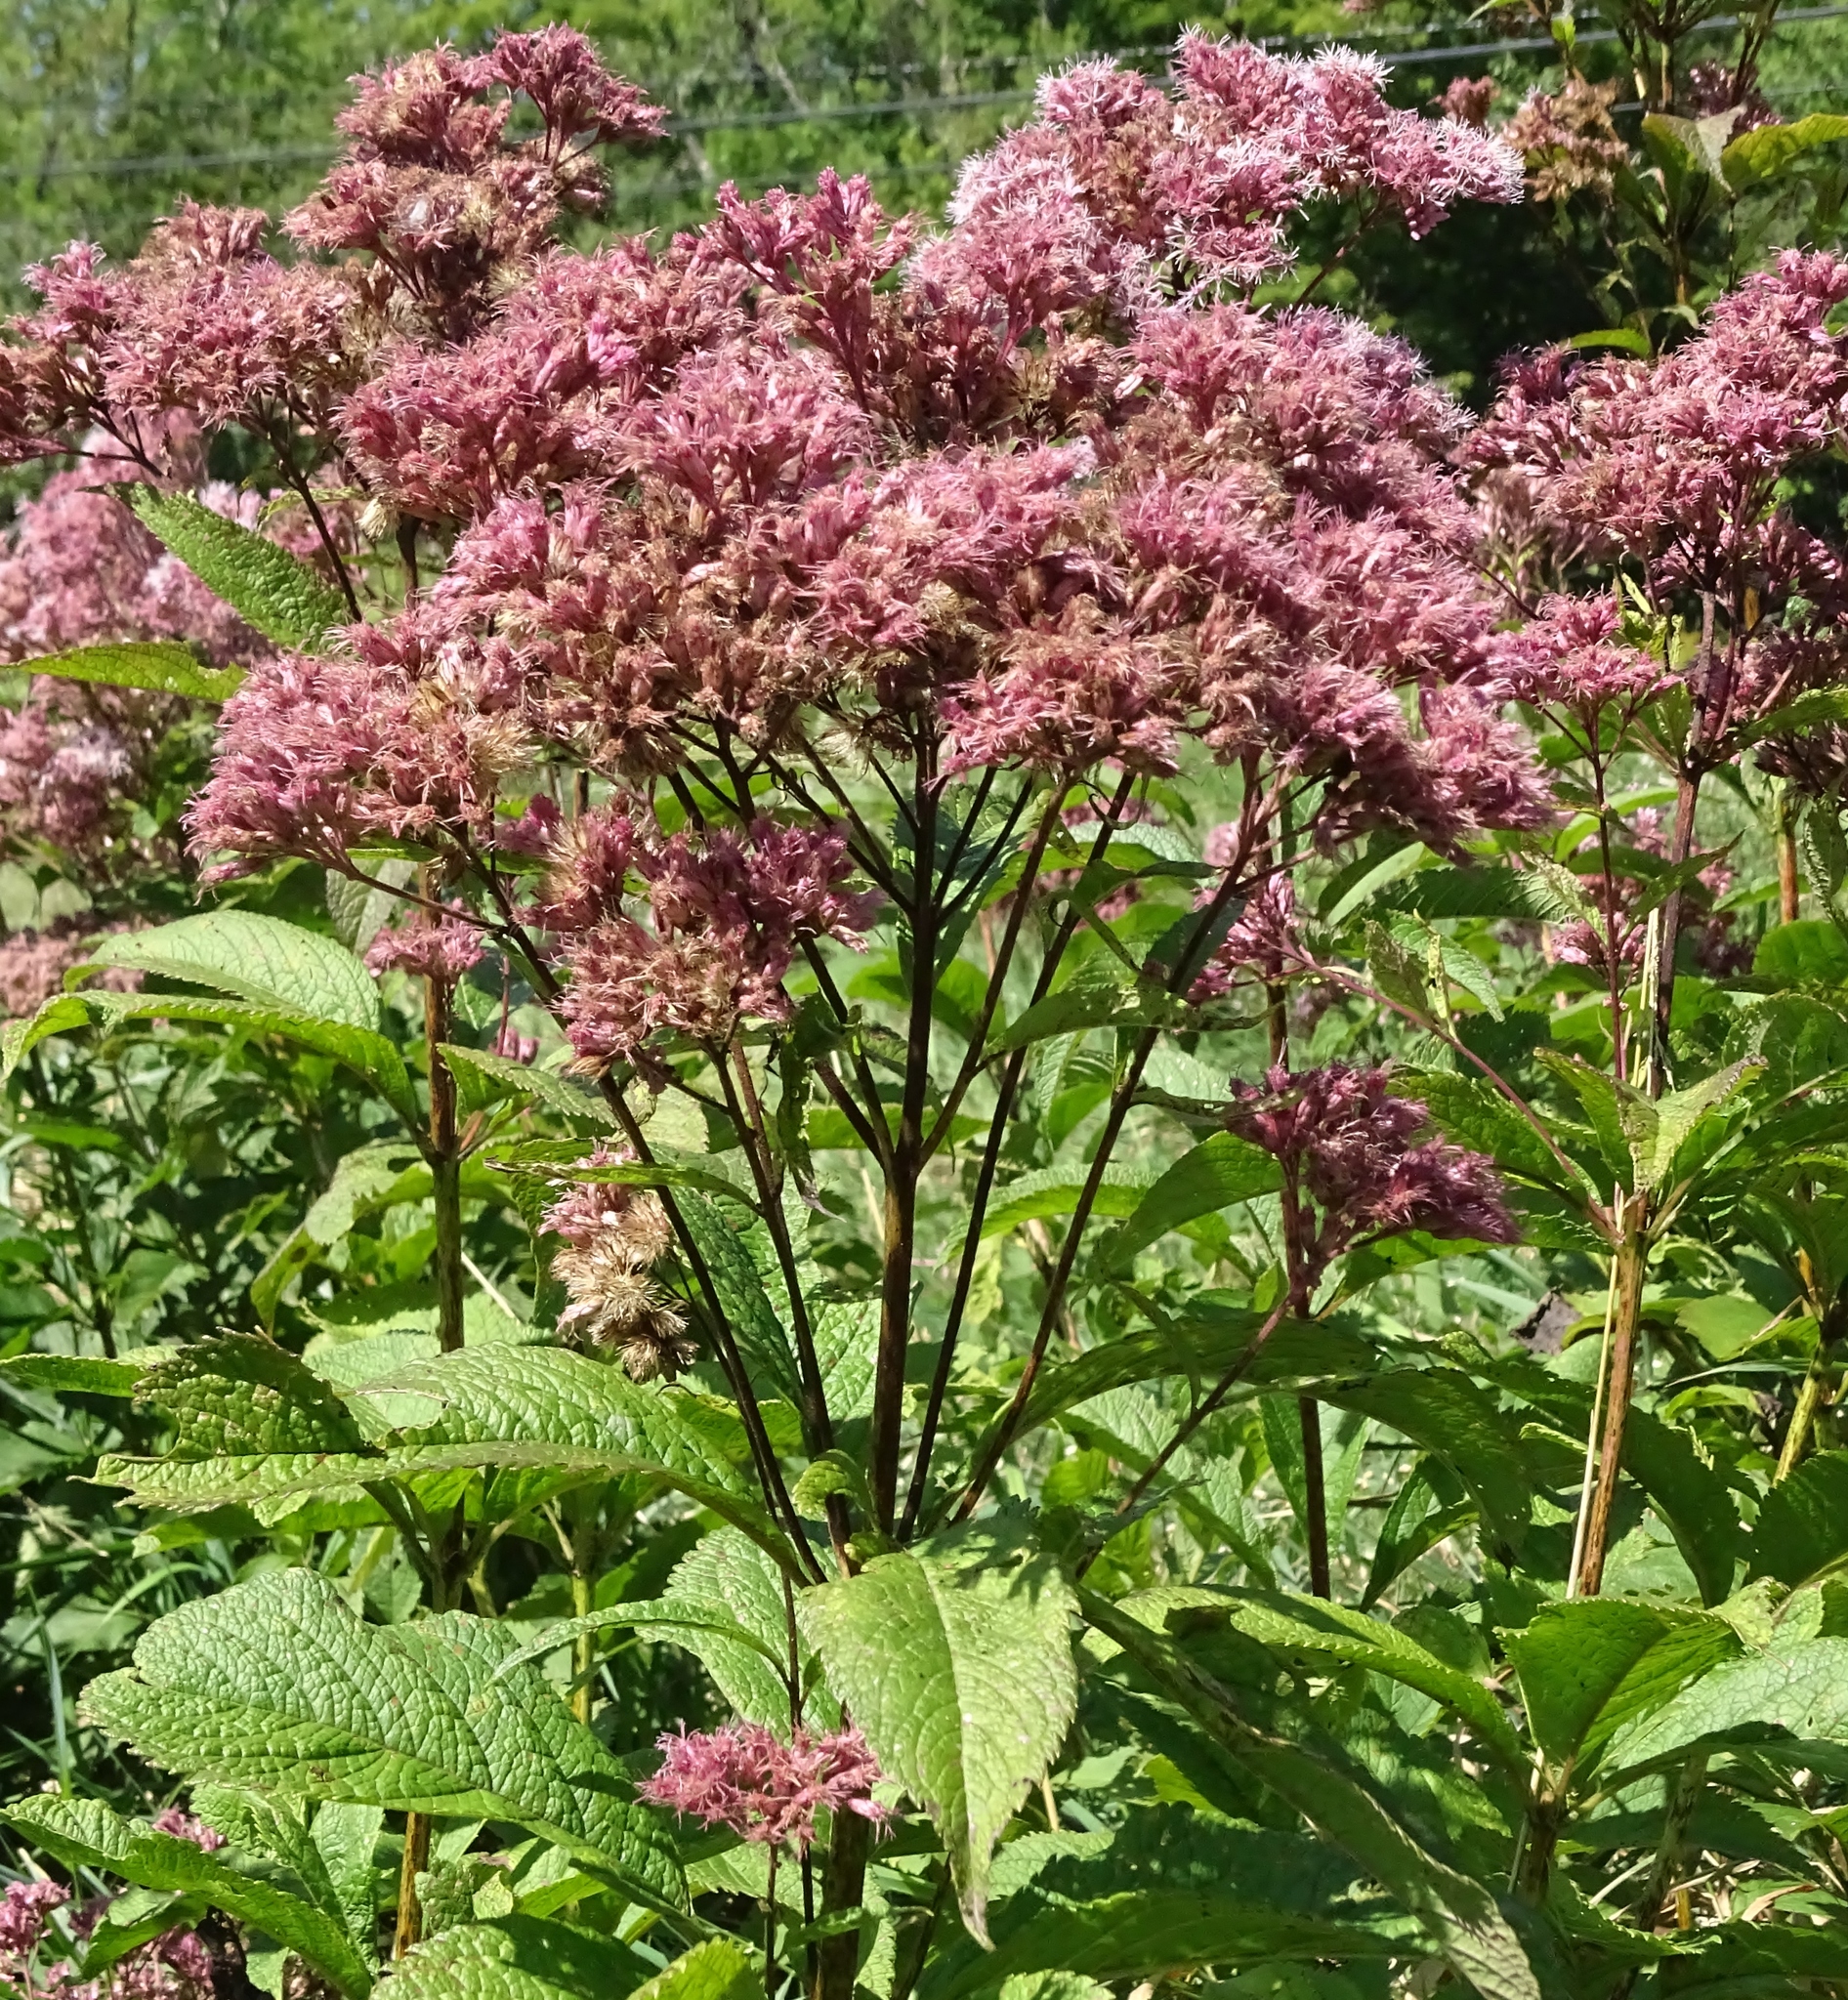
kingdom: Plantae
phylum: Tracheophyta
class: Magnoliopsida
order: Asterales
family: Asteraceae
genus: Eutrochium
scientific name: Eutrochium maculatum
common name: Spotted joe pye weed
